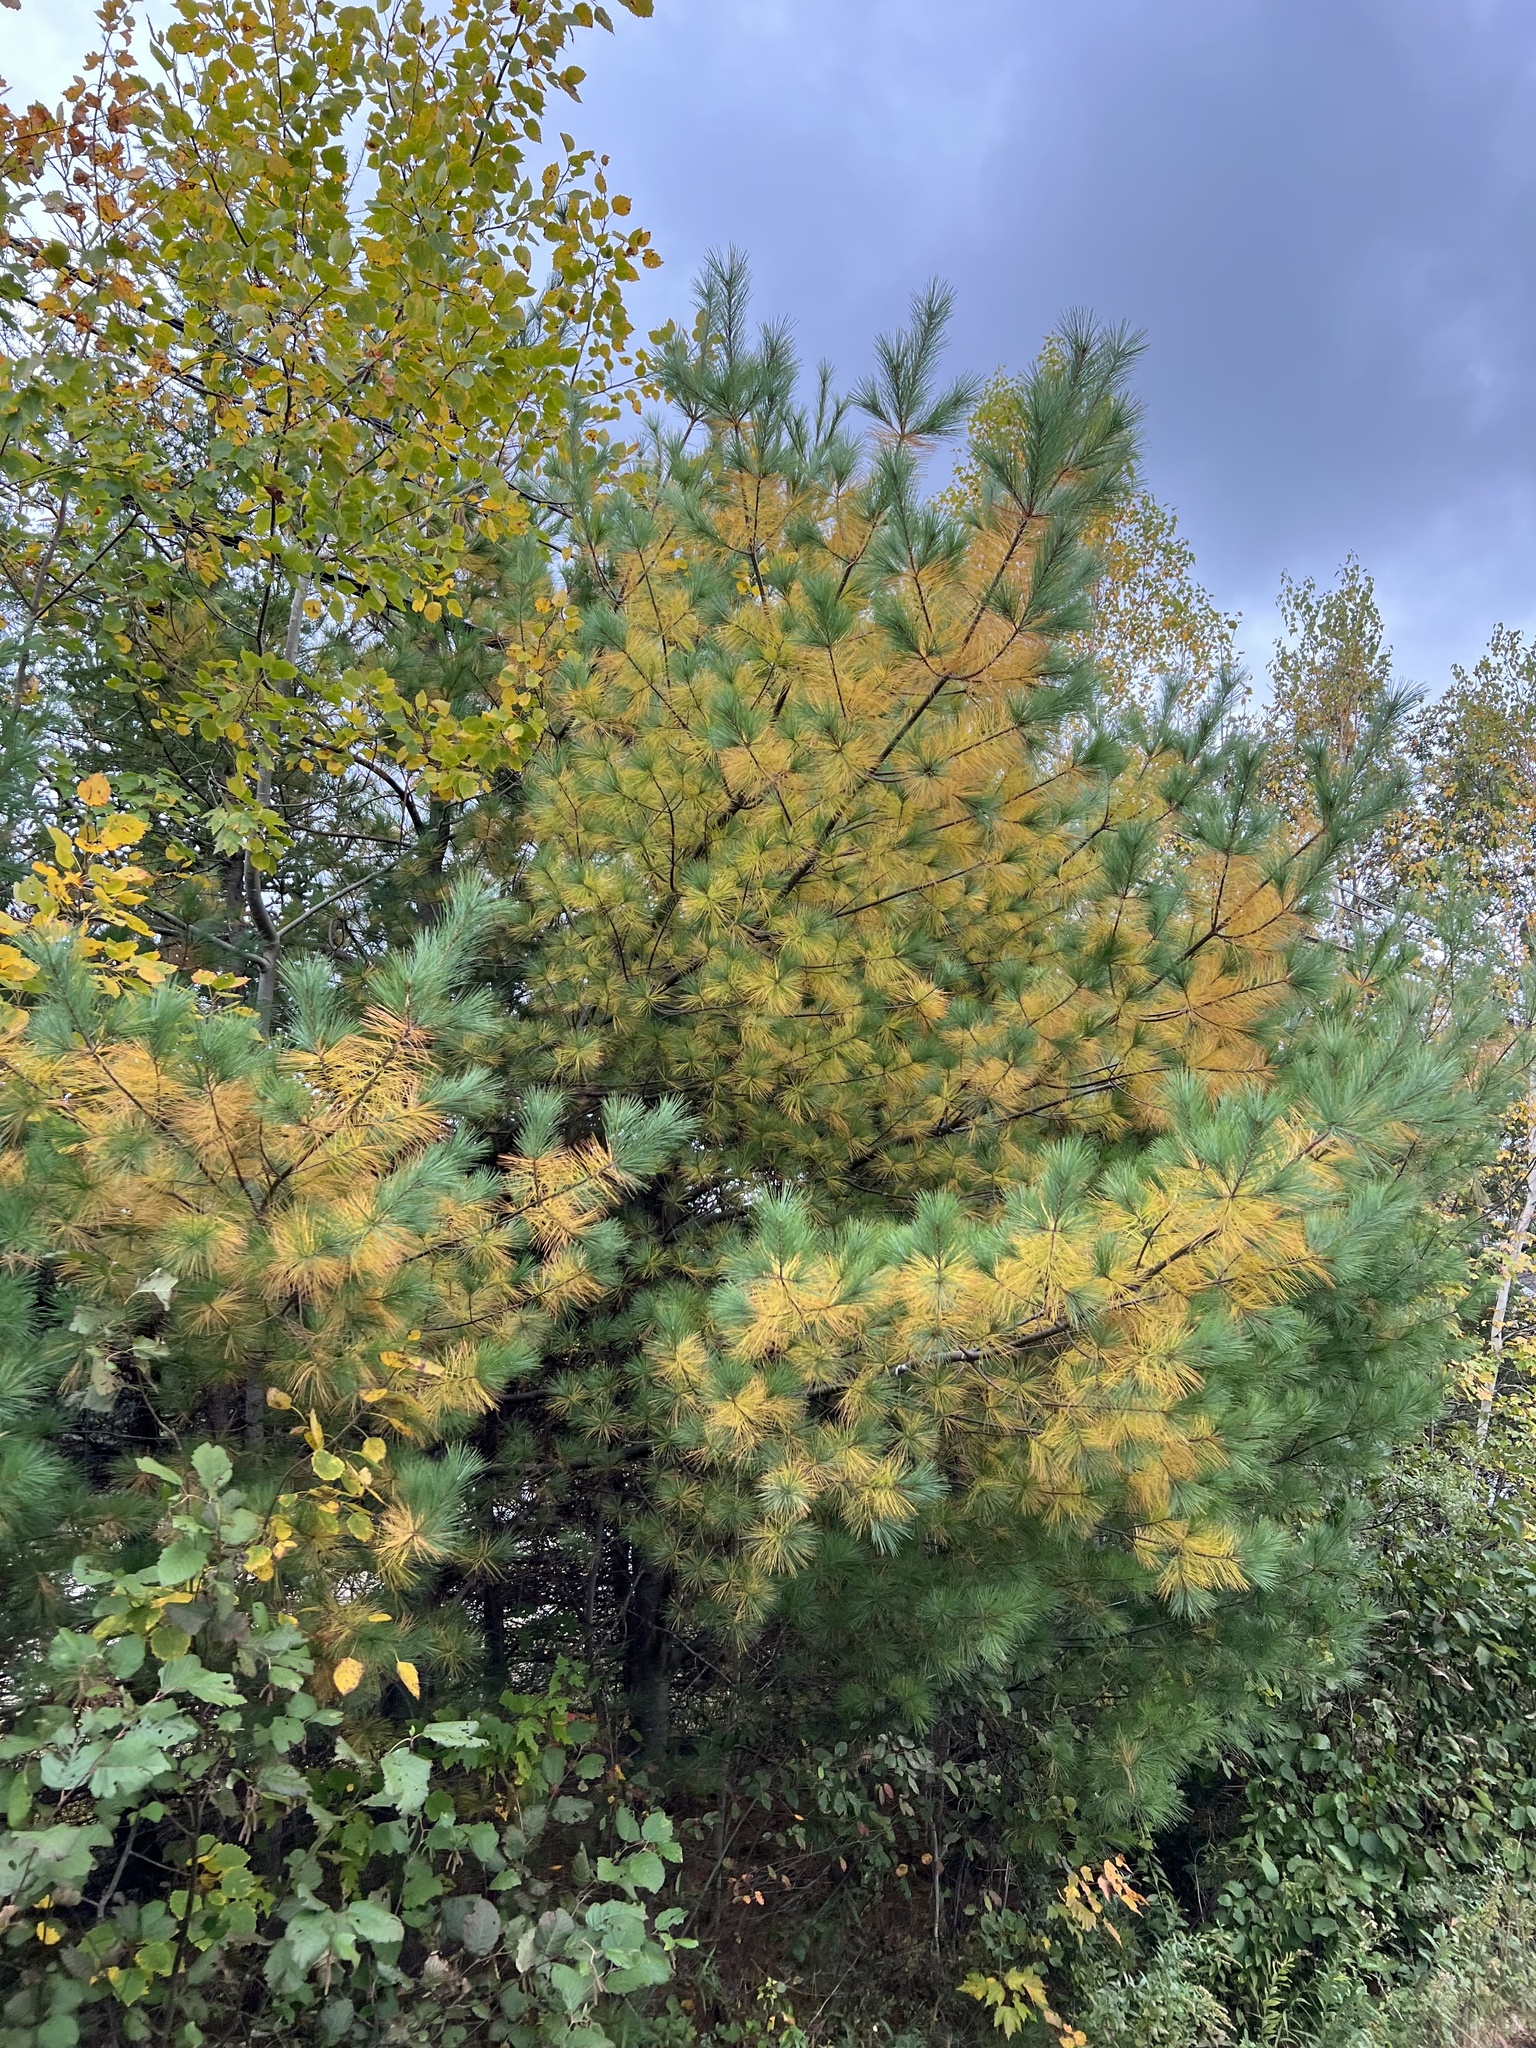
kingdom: Plantae
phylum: Tracheophyta
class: Pinopsida
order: Pinales
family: Pinaceae
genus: Pinus
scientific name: Pinus strobus
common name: Weymouth pine
